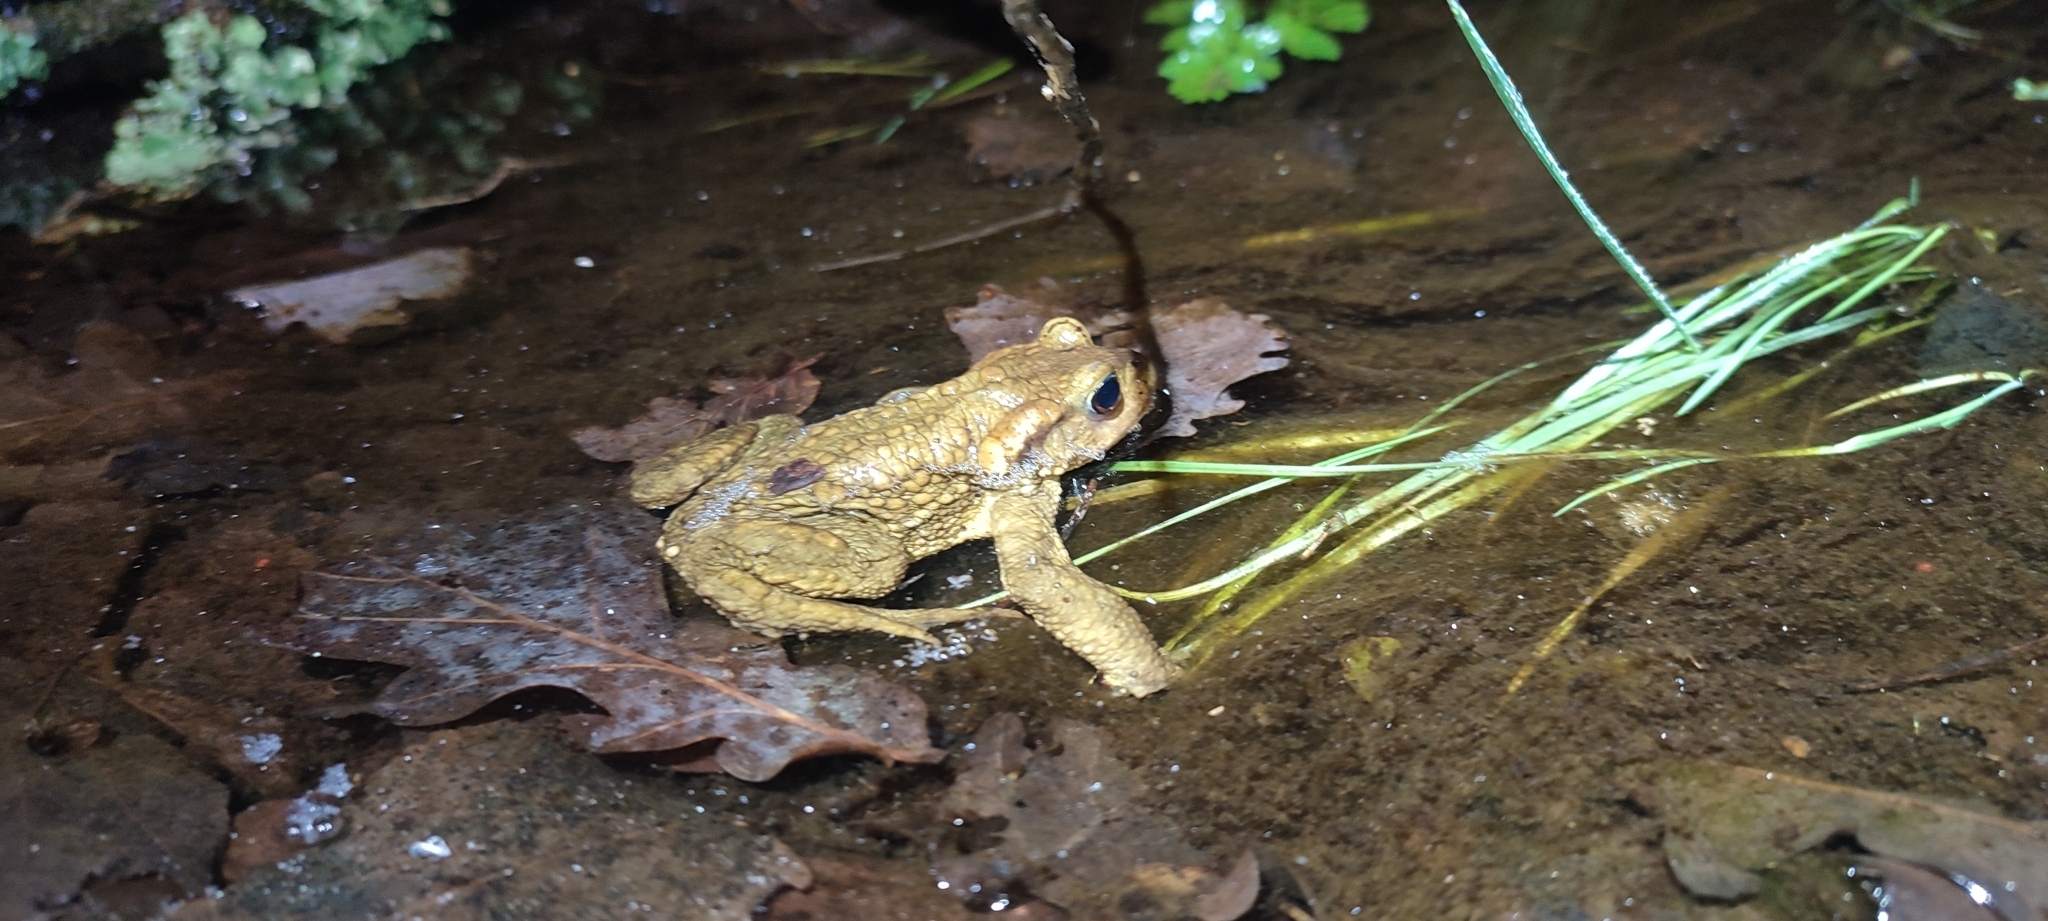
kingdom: Animalia
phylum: Chordata
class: Amphibia
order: Anura
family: Bufonidae
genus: Bufo
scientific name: Bufo spinosus
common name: Western common toad
